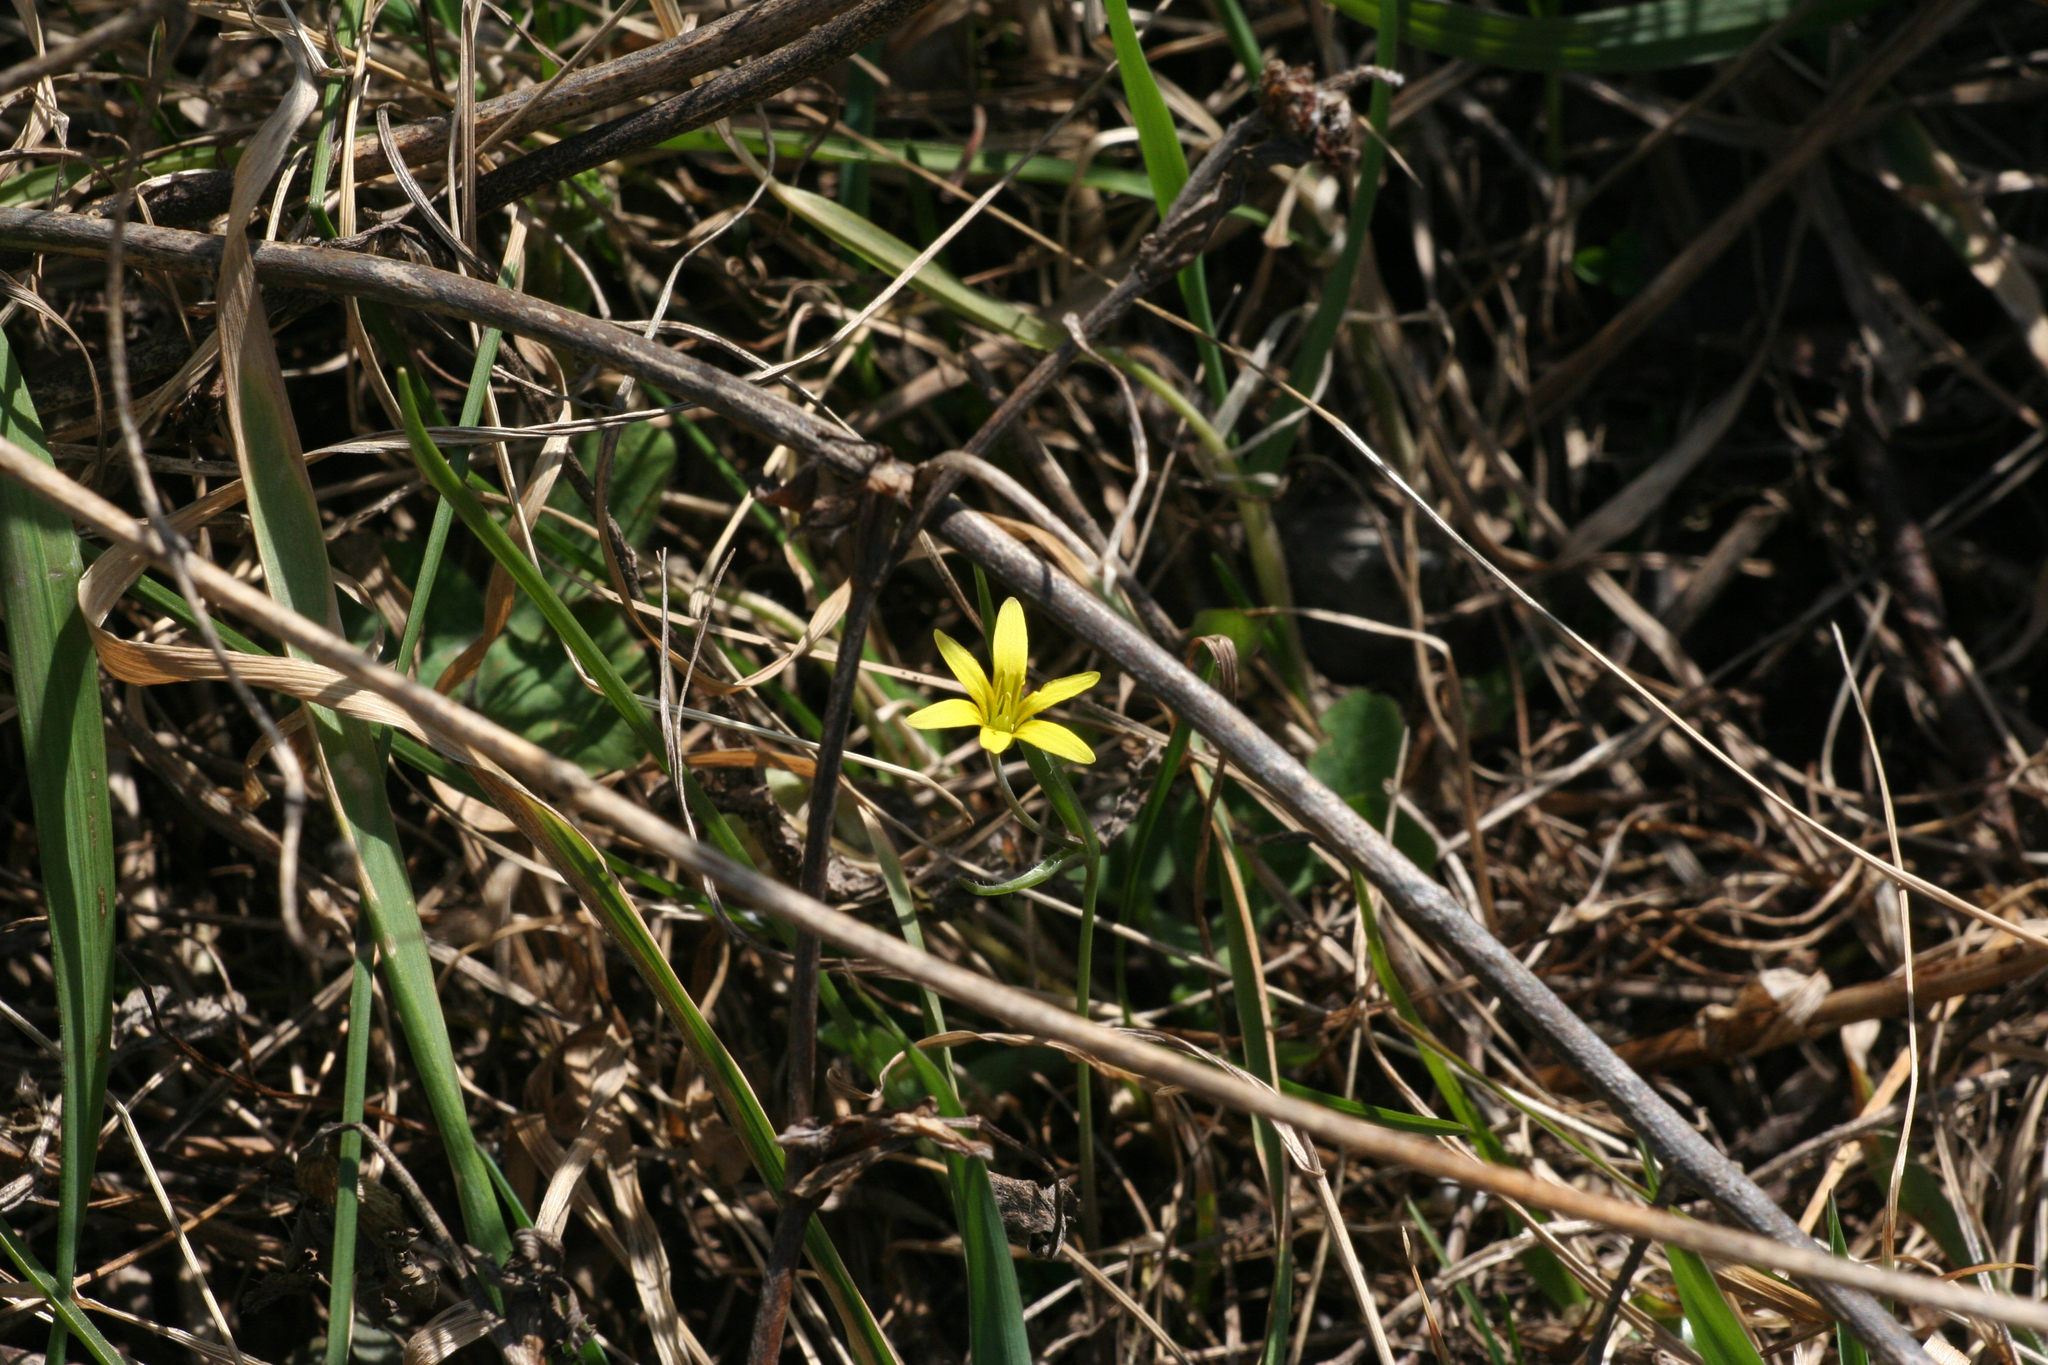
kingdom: Plantae
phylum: Tracheophyta
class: Liliopsida
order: Liliales
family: Liliaceae
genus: Gagea
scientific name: Gagea fedtschenkoana
